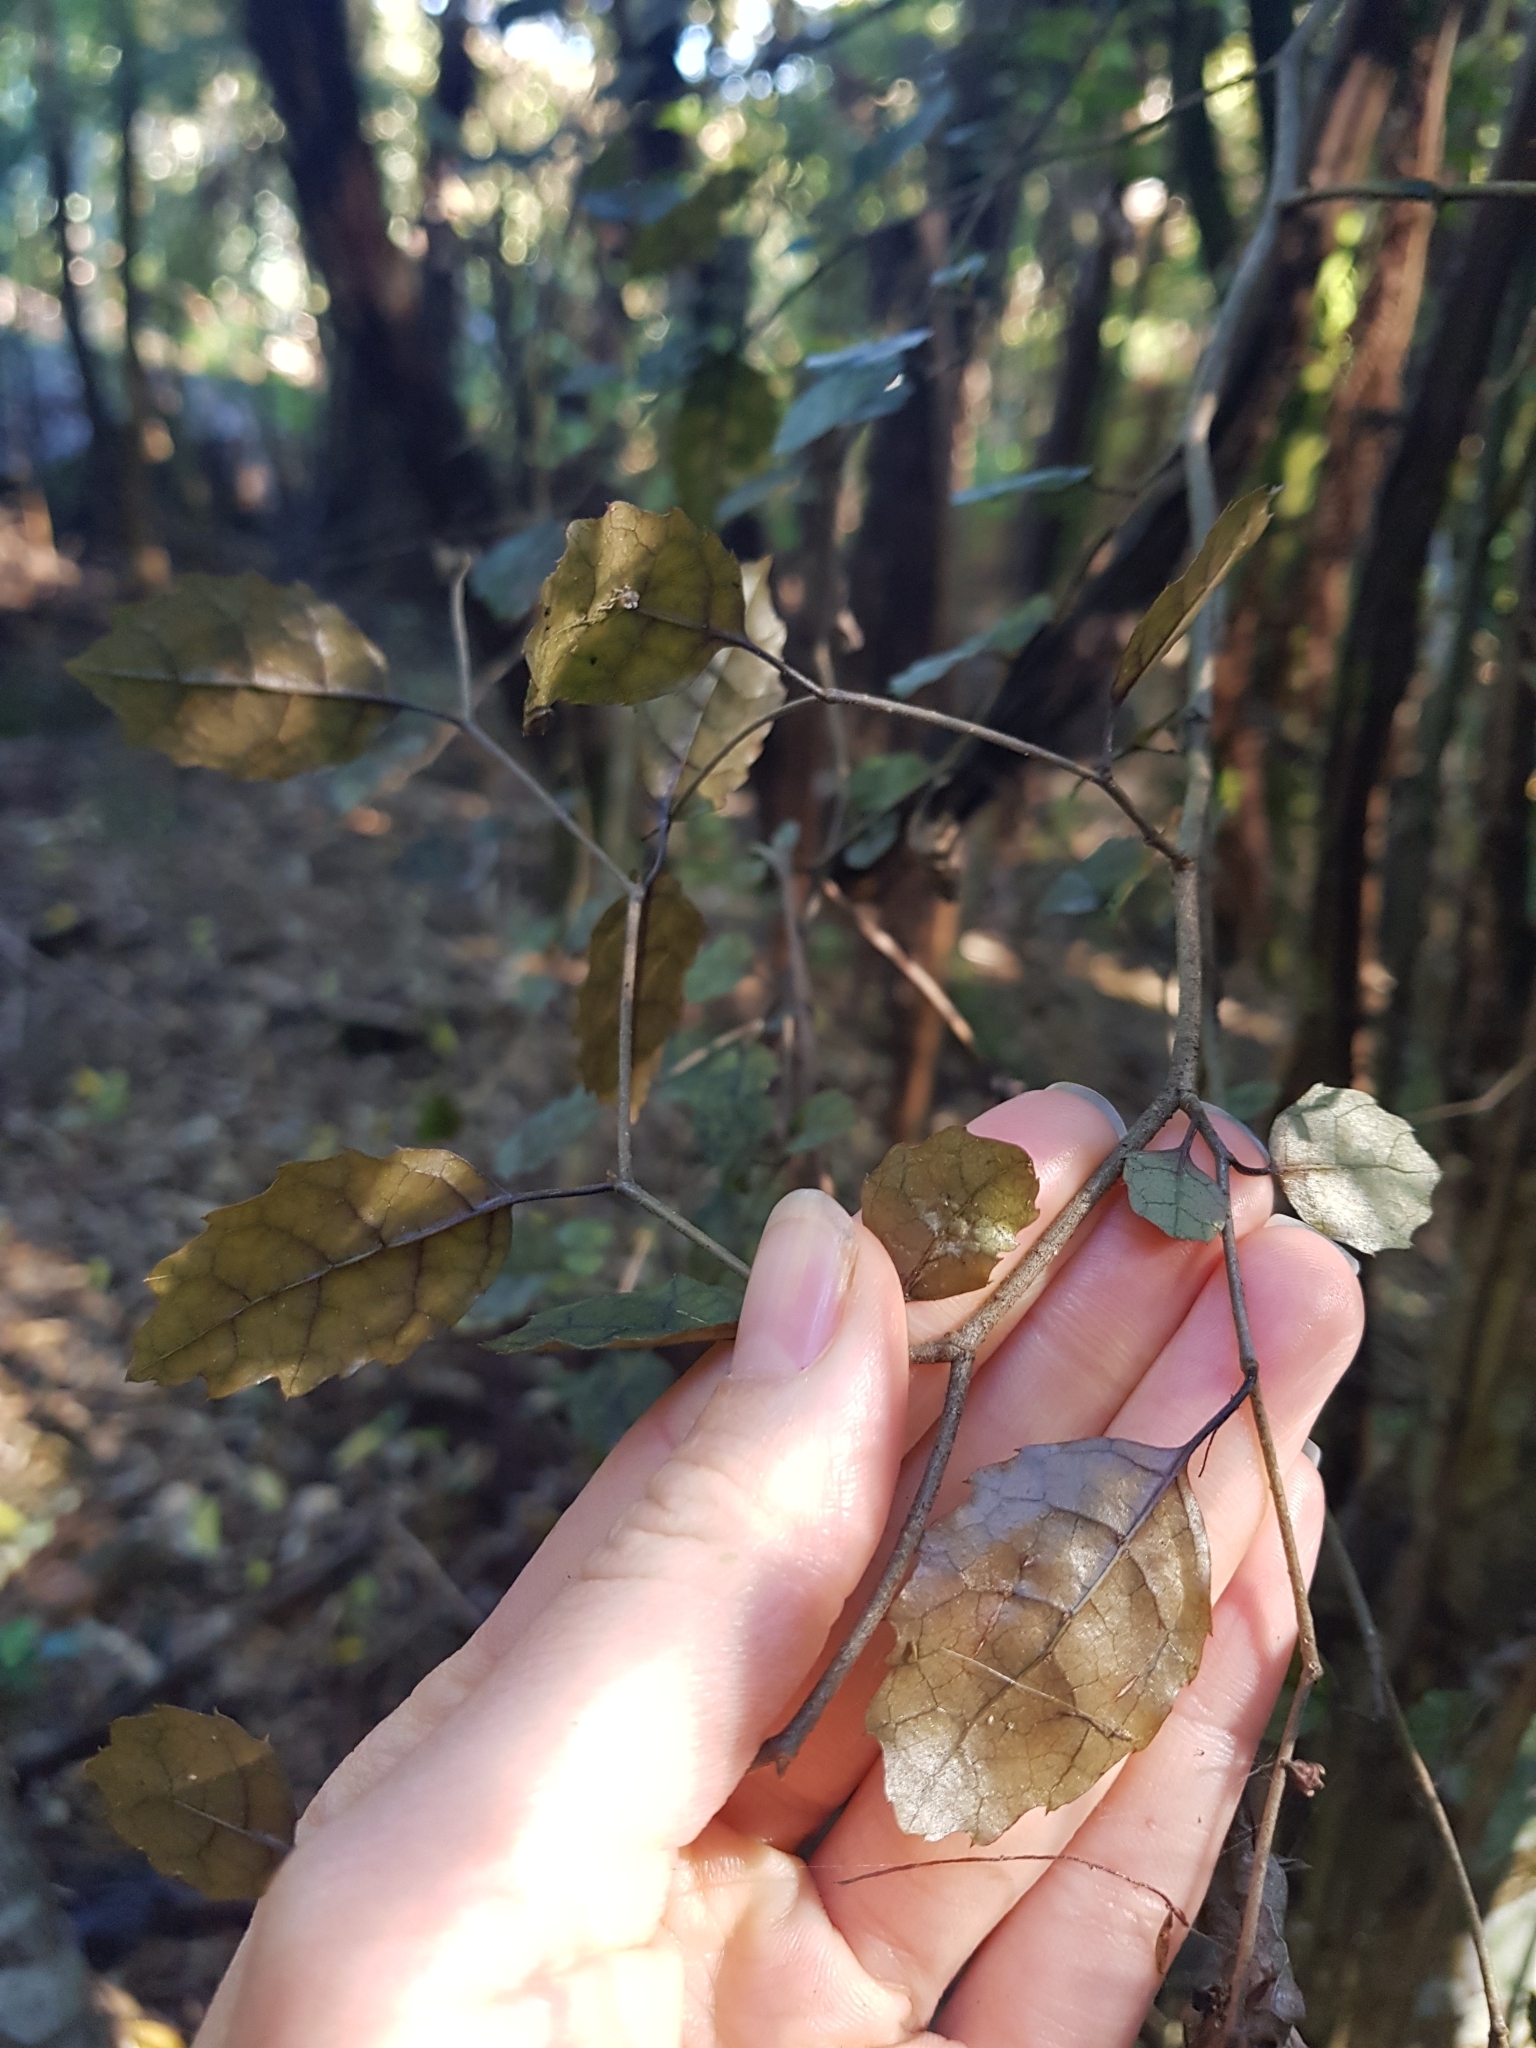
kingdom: Plantae
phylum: Tracheophyta
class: Magnoliopsida
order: Asterales
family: Rousseaceae
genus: Carpodetus
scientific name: Carpodetus serratus
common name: White mapau
